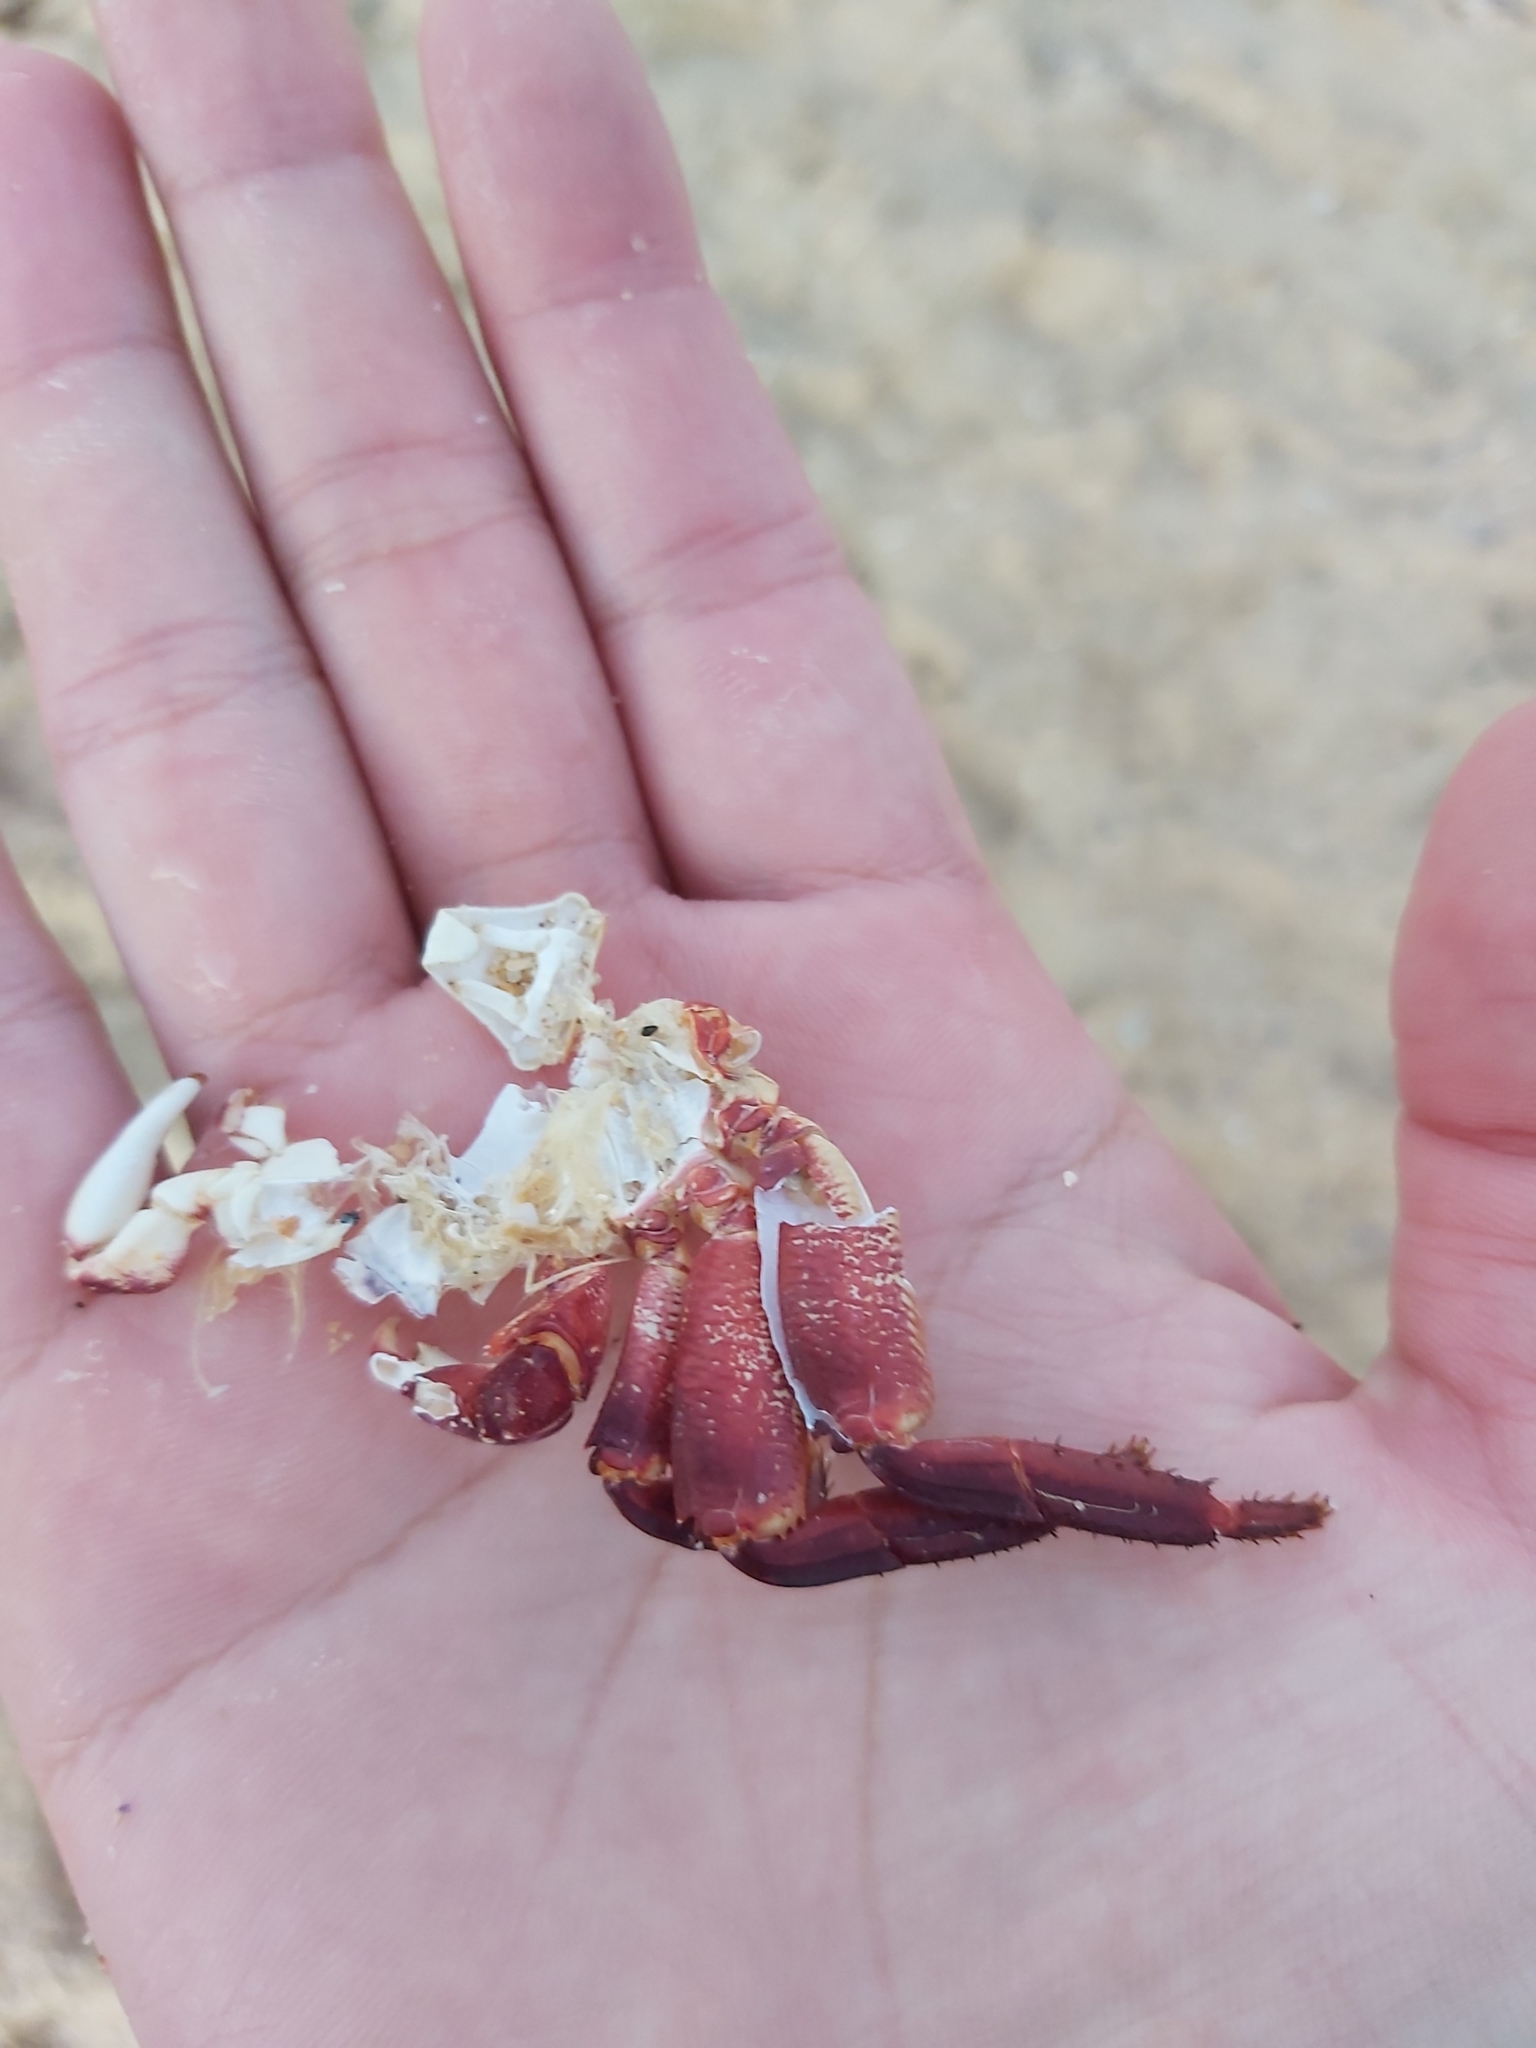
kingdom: Animalia
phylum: Arthropoda
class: Malacostraca
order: Decapoda
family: Grapsidae
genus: Leptograpsus
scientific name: Leptograpsus variegatus
